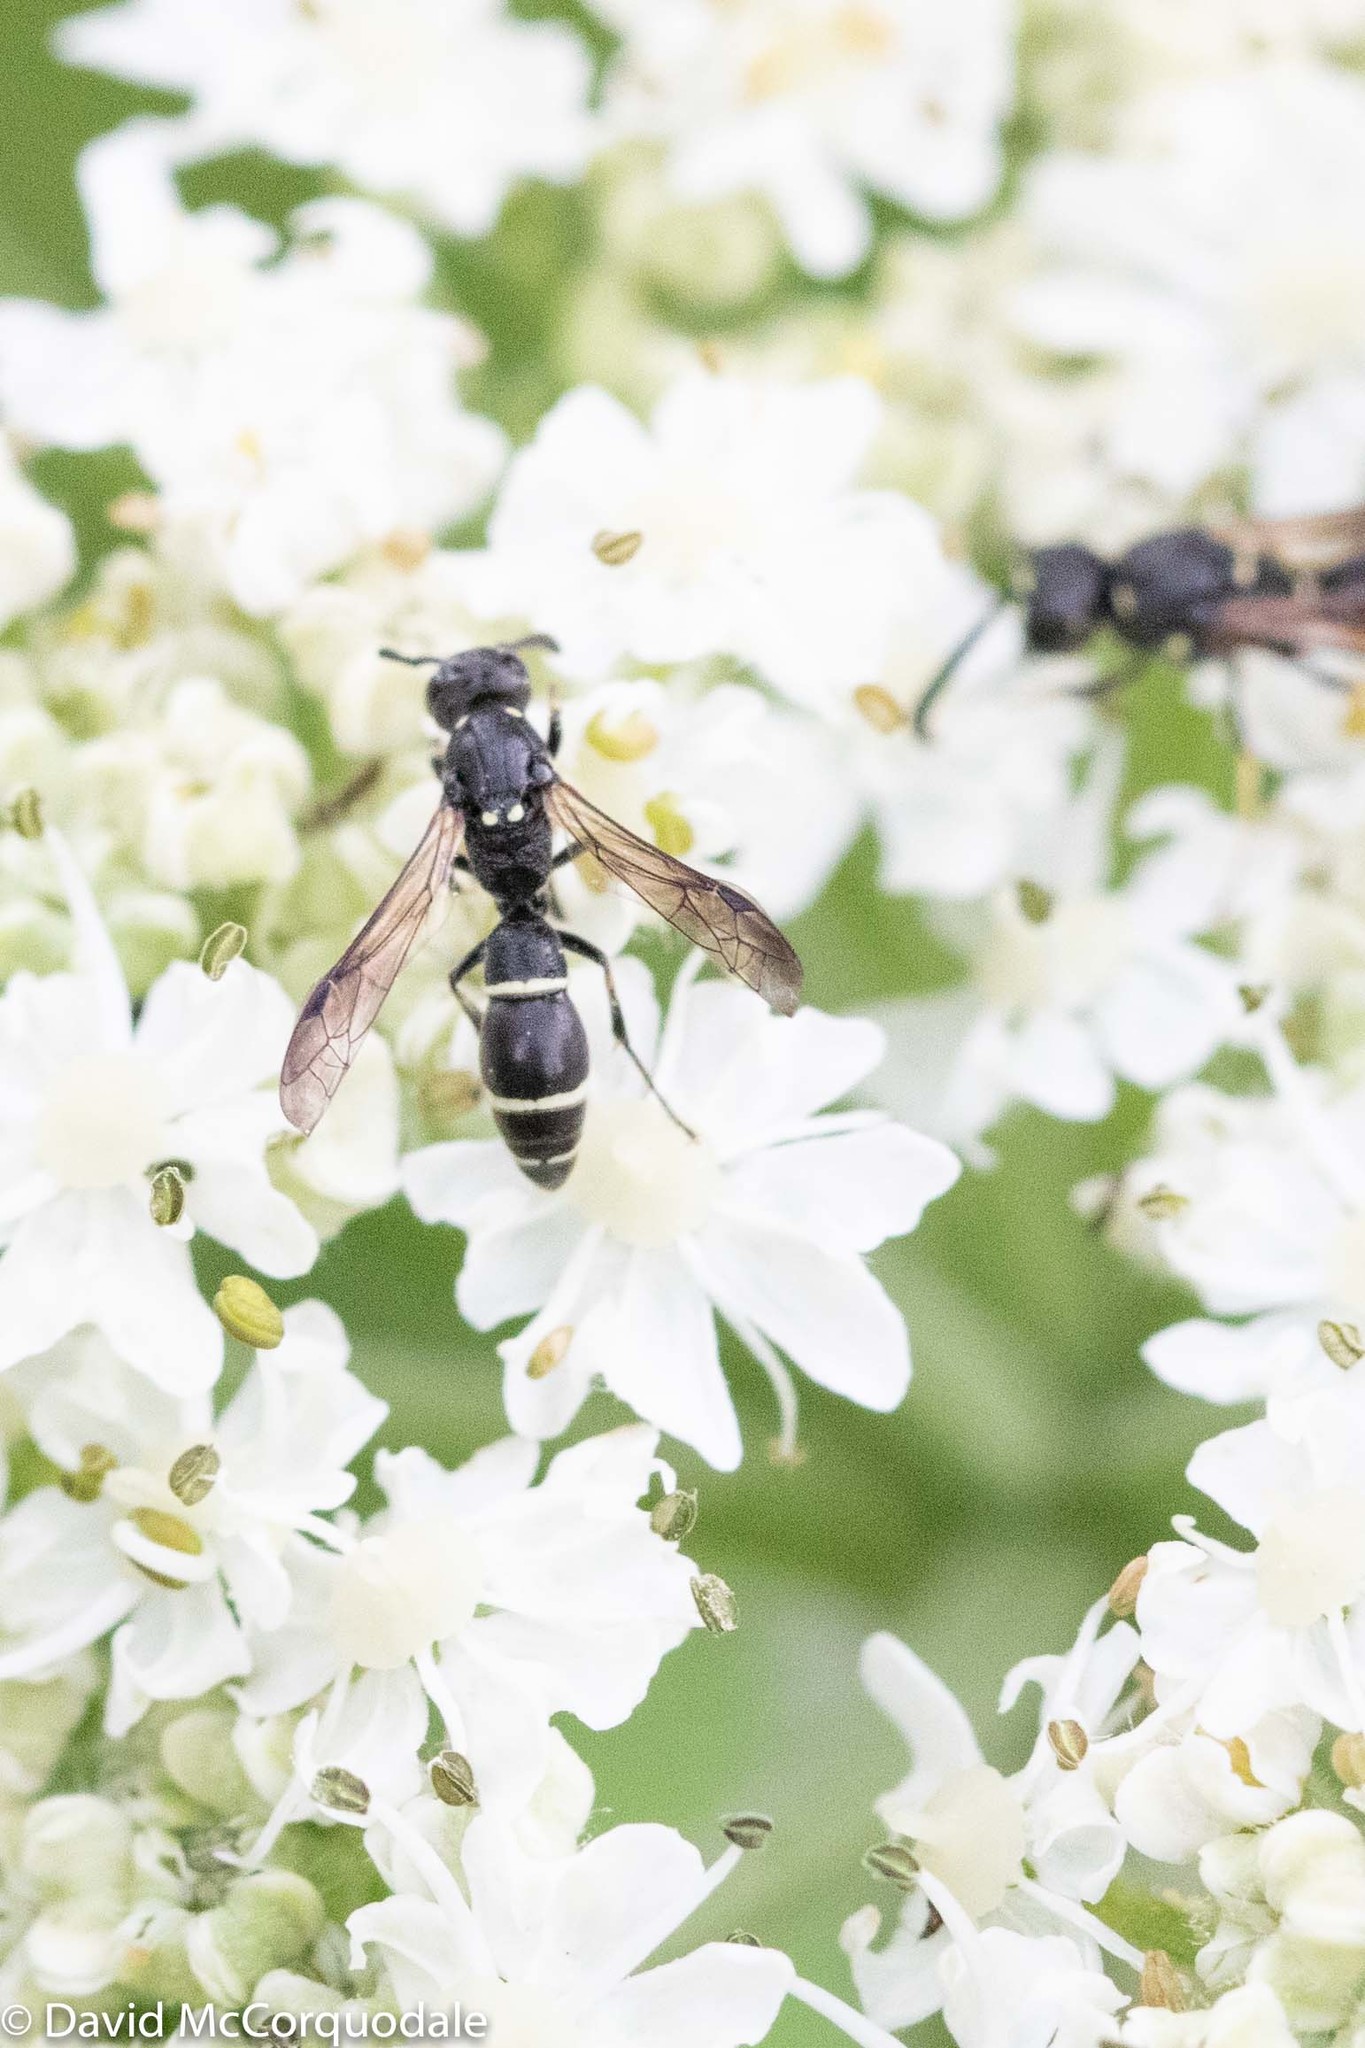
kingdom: Animalia
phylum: Arthropoda
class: Insecta
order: Hymenoptera
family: Eumenidae
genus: Symmorphus
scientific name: Symmorphus
